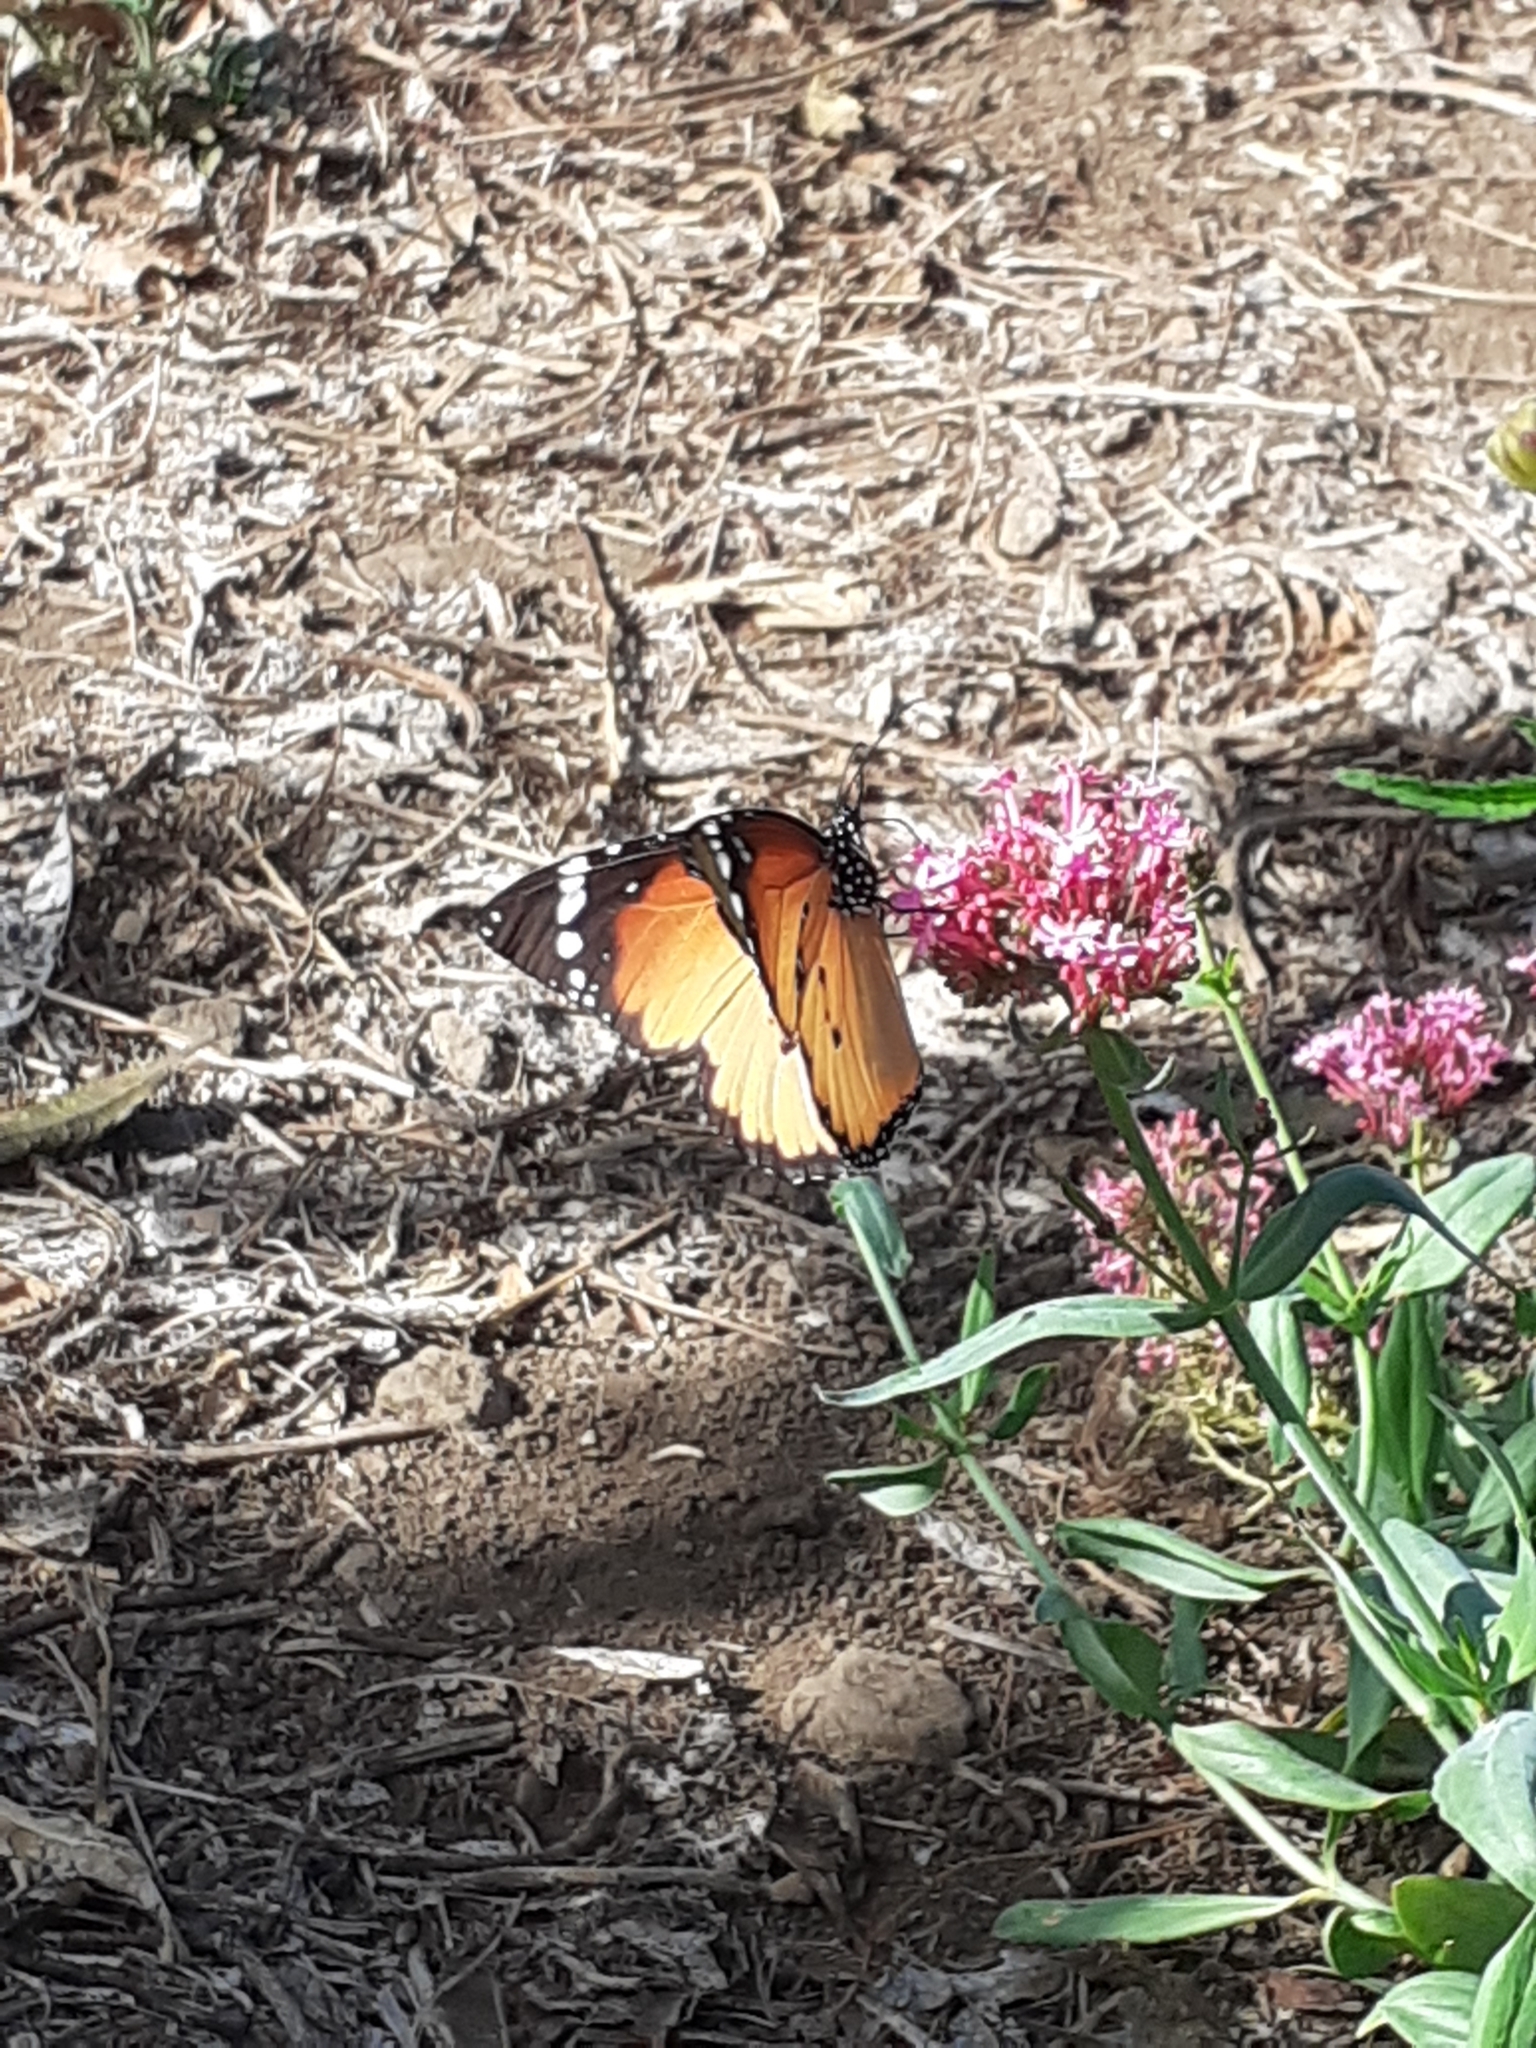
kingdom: Animalia
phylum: Arthropoda
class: Insecta
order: Lepidoptera
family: Nymphalidae
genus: Danaus
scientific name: Danaus chrysippus
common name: Plain tiger
